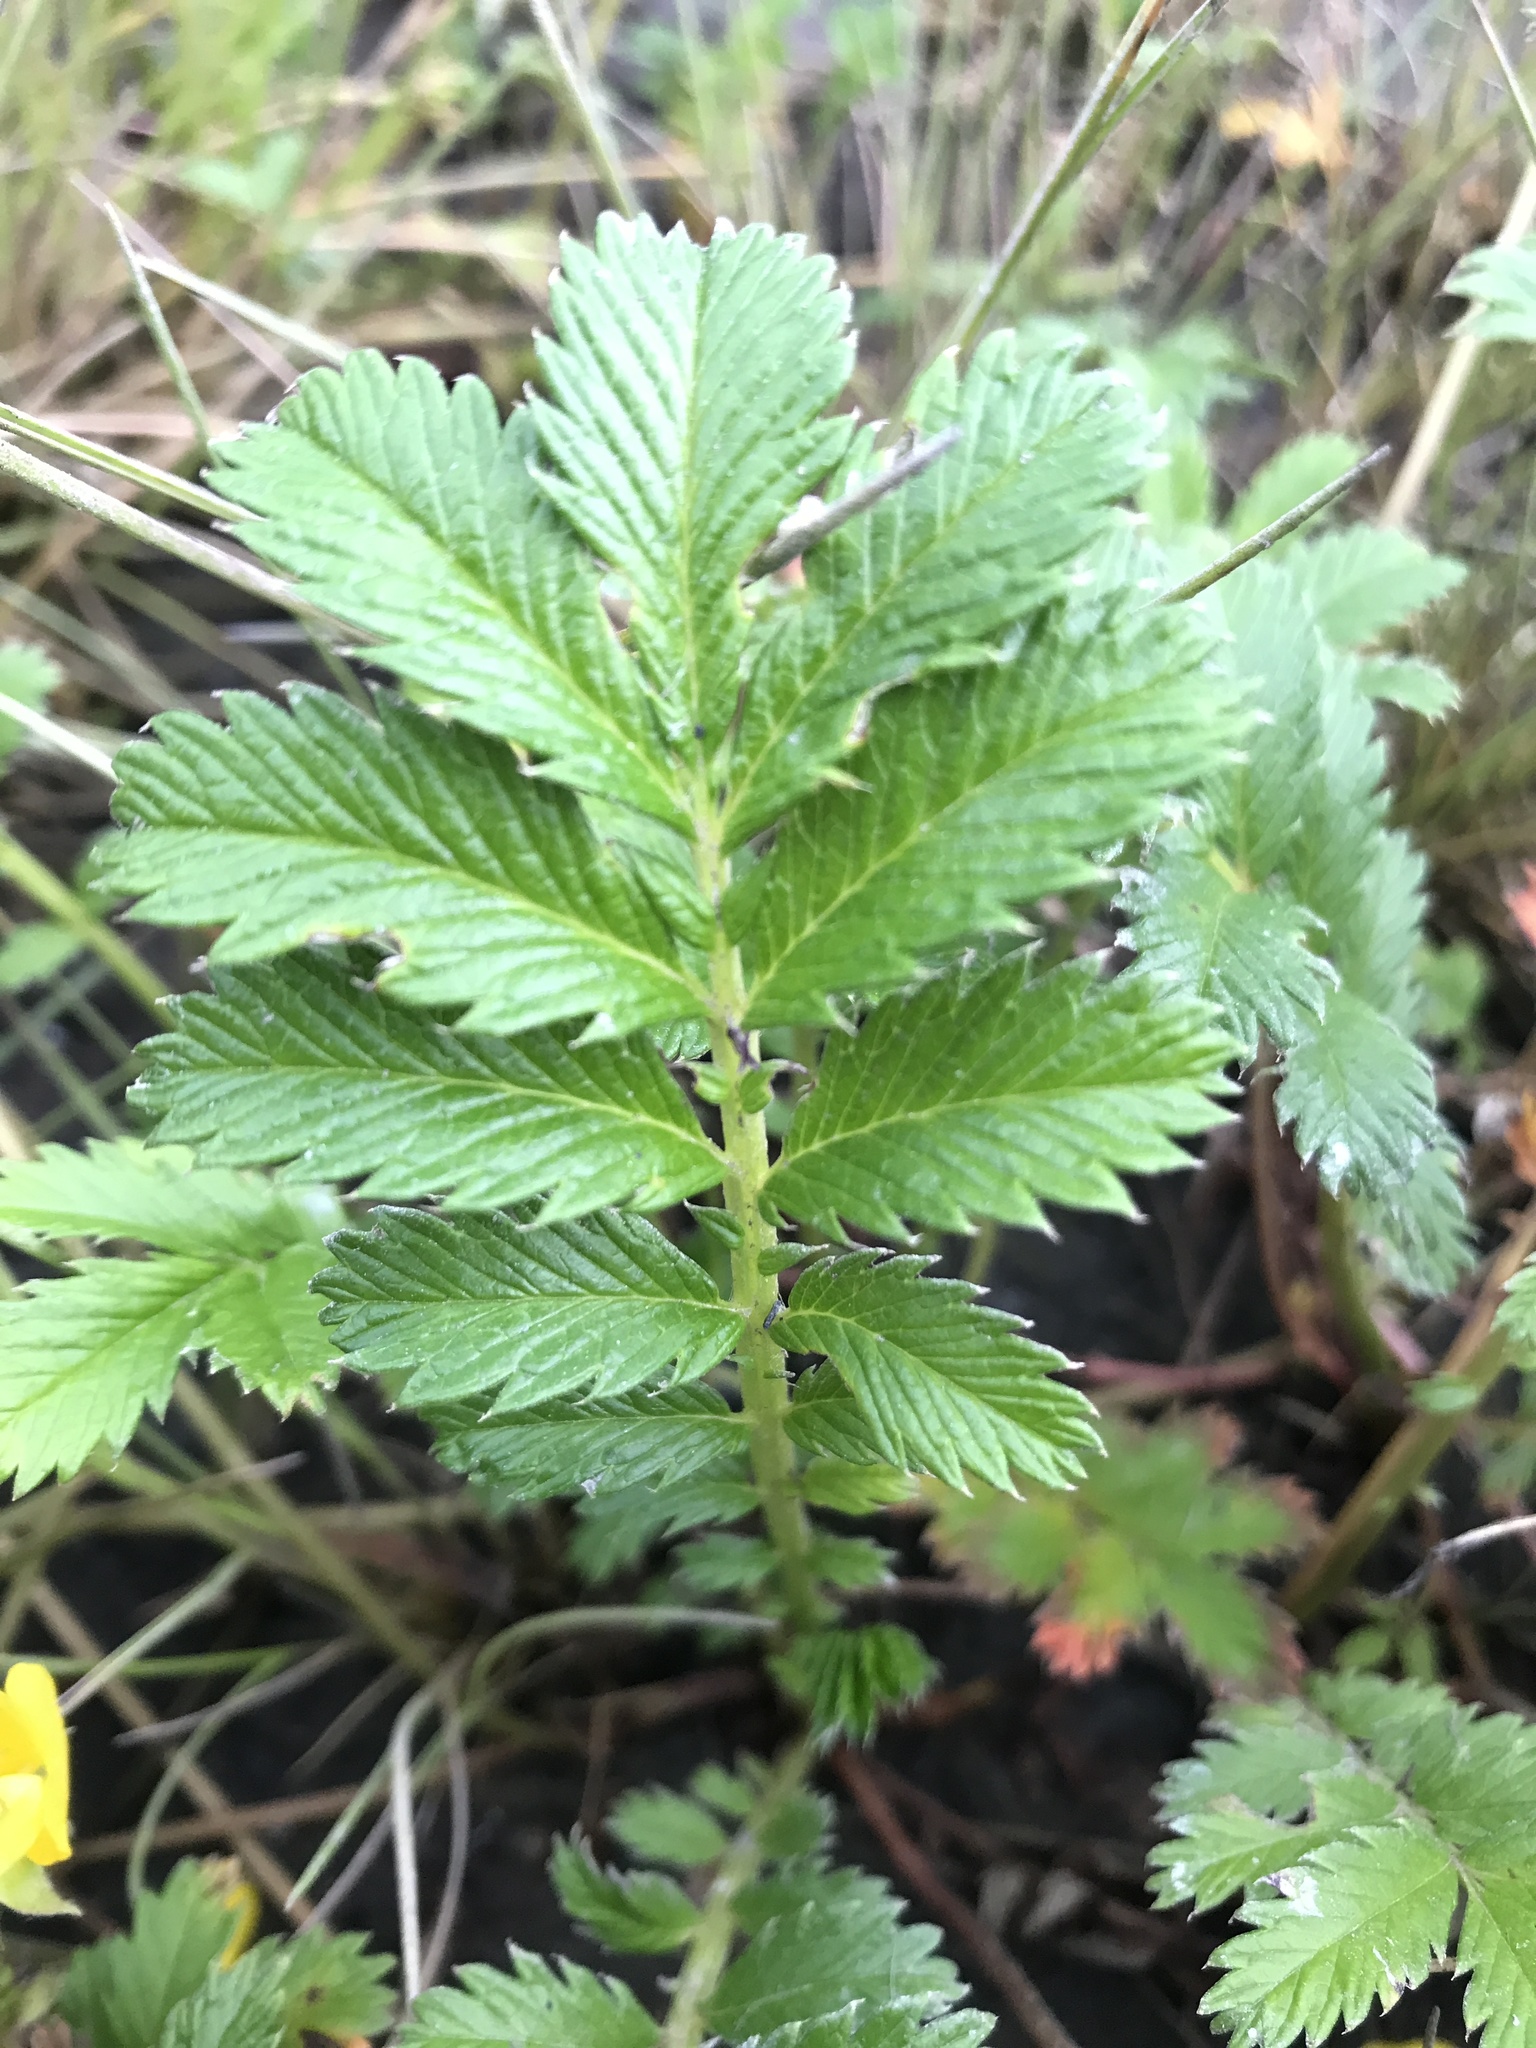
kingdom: Plantae
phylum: Tracheophyta
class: Magnoliopsida
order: Rosales
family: Rosaceae
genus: Argentina
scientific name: Argentina anserina
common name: Common silverweed
